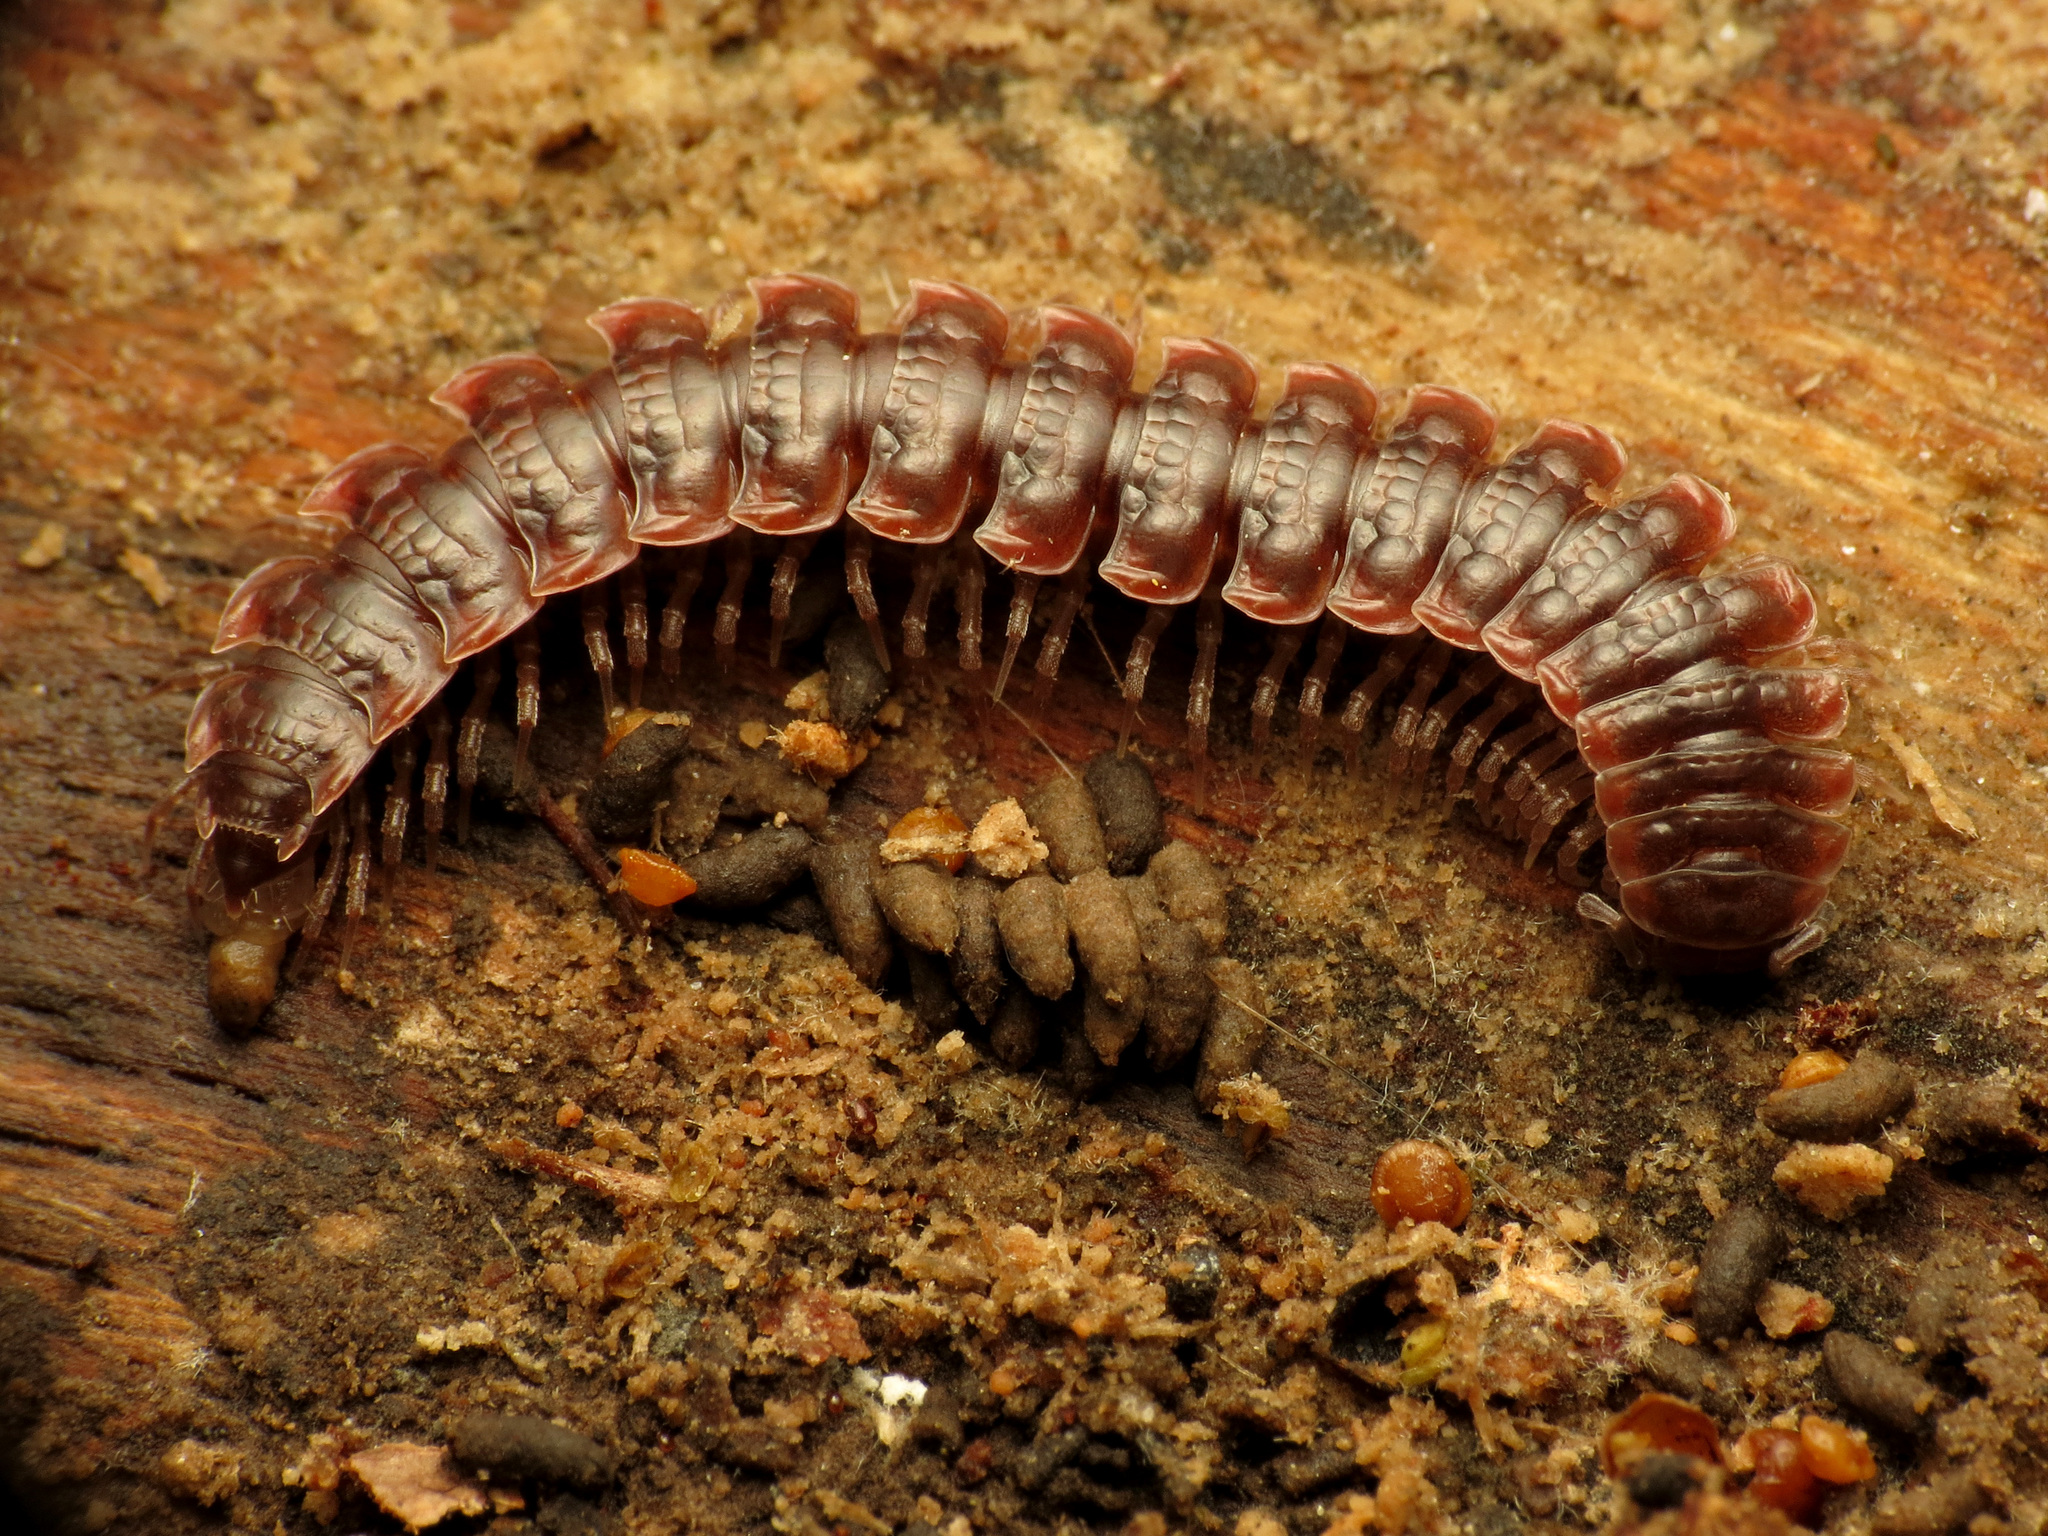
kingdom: Animalia
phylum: Arthropoda
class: Diplopoda
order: Polydesmida
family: Polydesmidae
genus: Pseudopolydesmus
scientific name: Pseudopolydesmus serratus
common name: Common pink flat-back millipede
